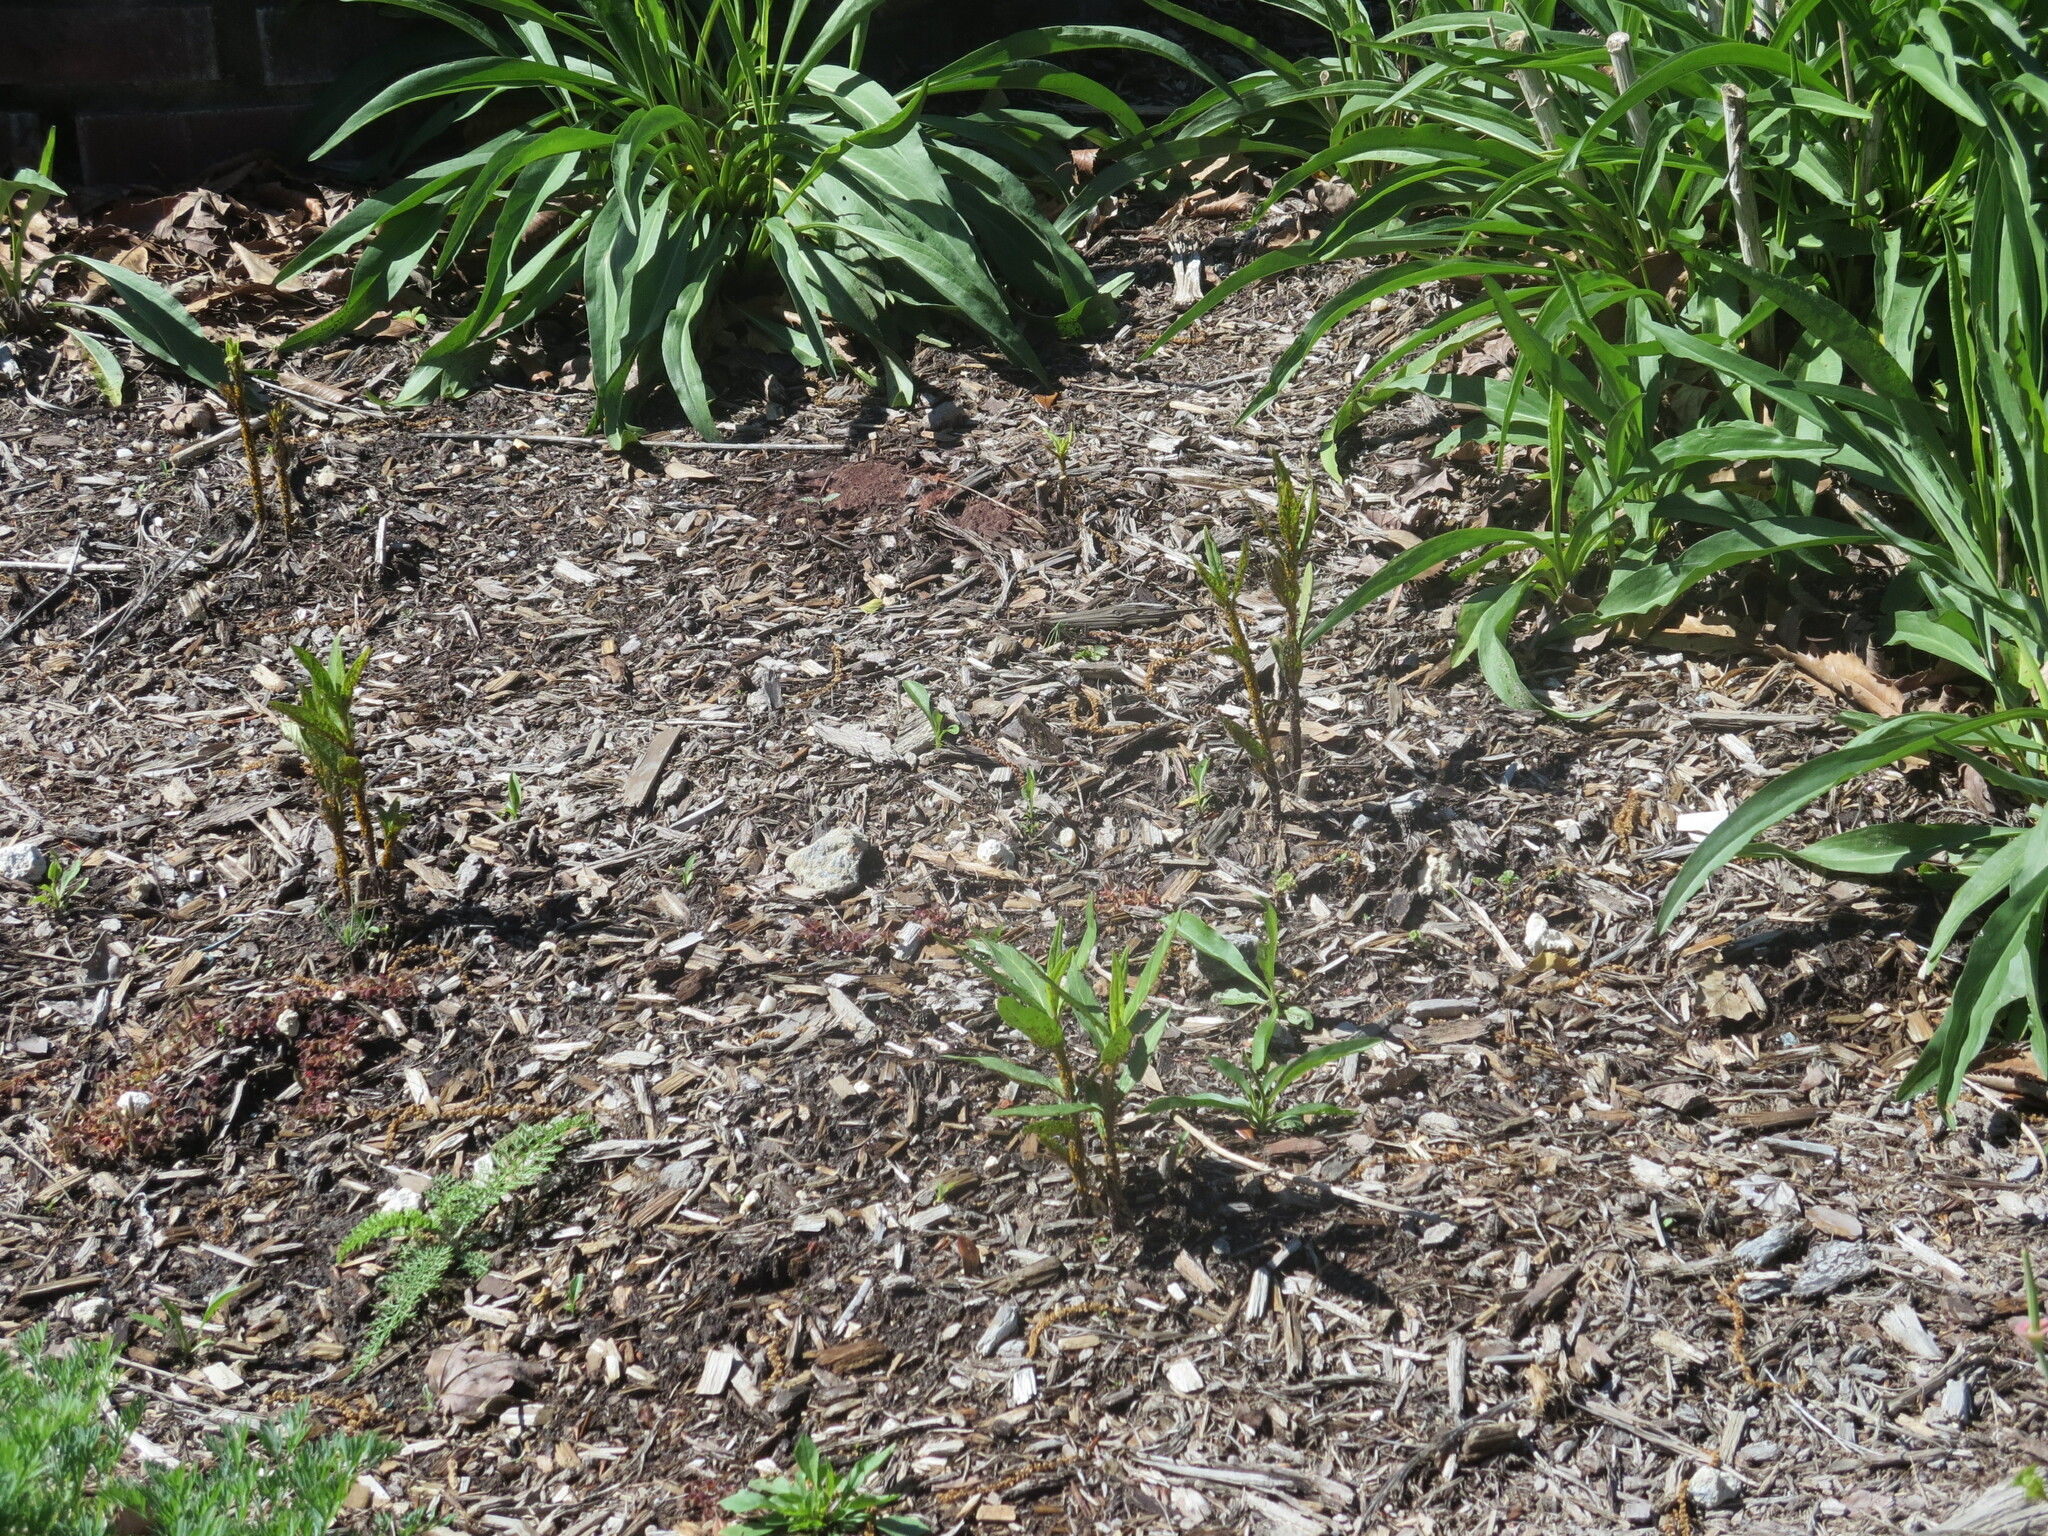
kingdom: Animalia
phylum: Arthropoda
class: Insecta
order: Hemiptera
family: Aphididae
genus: Aphis
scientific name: Aphis nerii
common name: Oleander aphid
